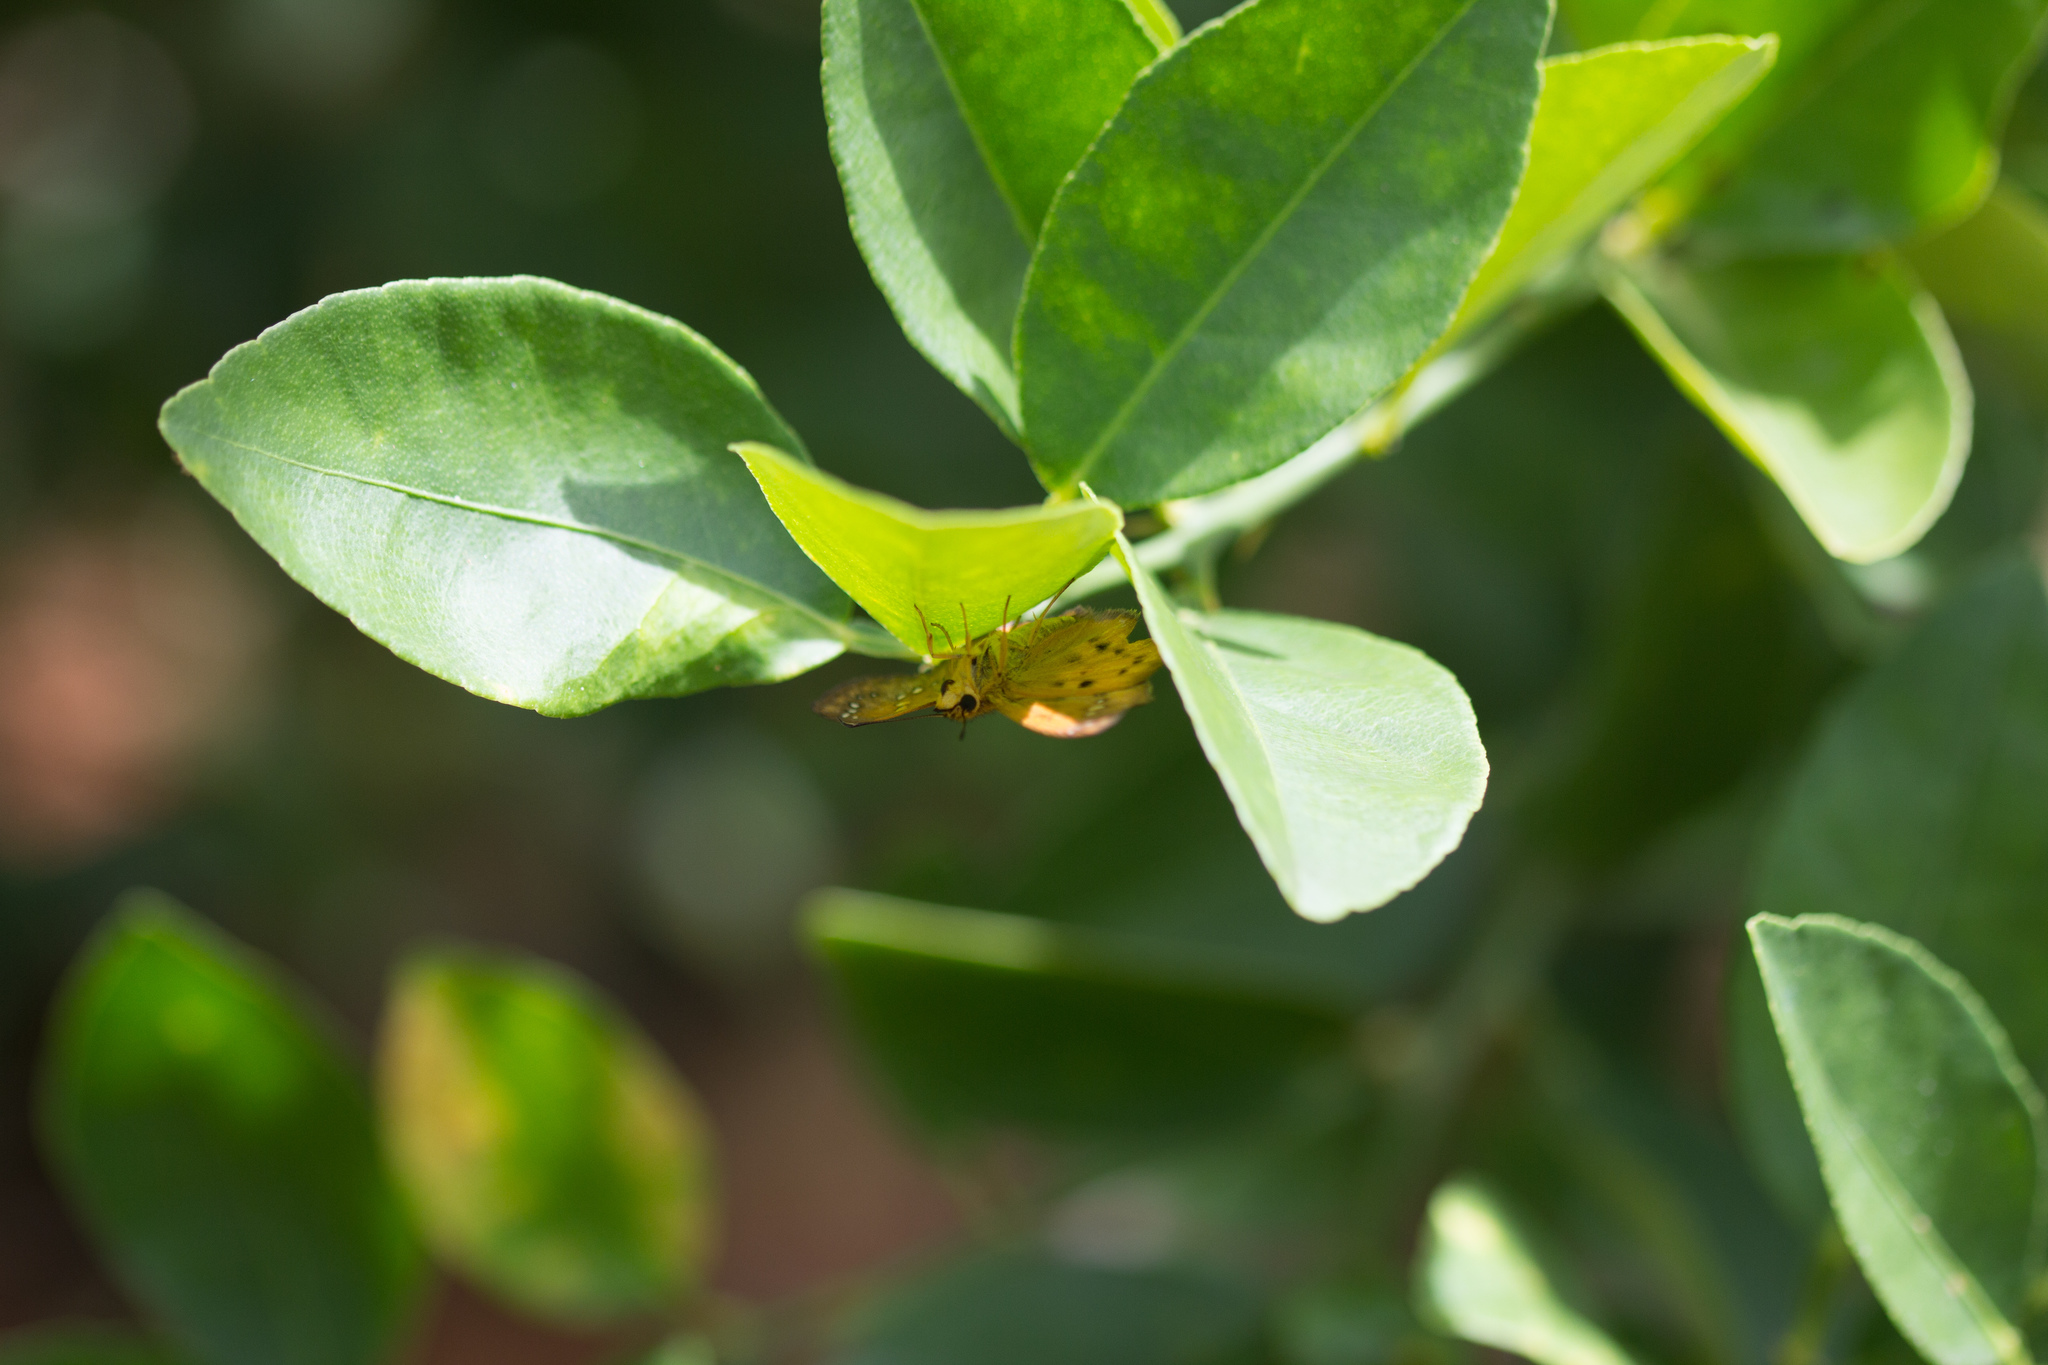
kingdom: Animalia
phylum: Arthropoda
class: Insecta
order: Lepidoptera
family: Hesperiidae
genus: Eagris
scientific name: Eagris sabadius
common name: Orange flat
